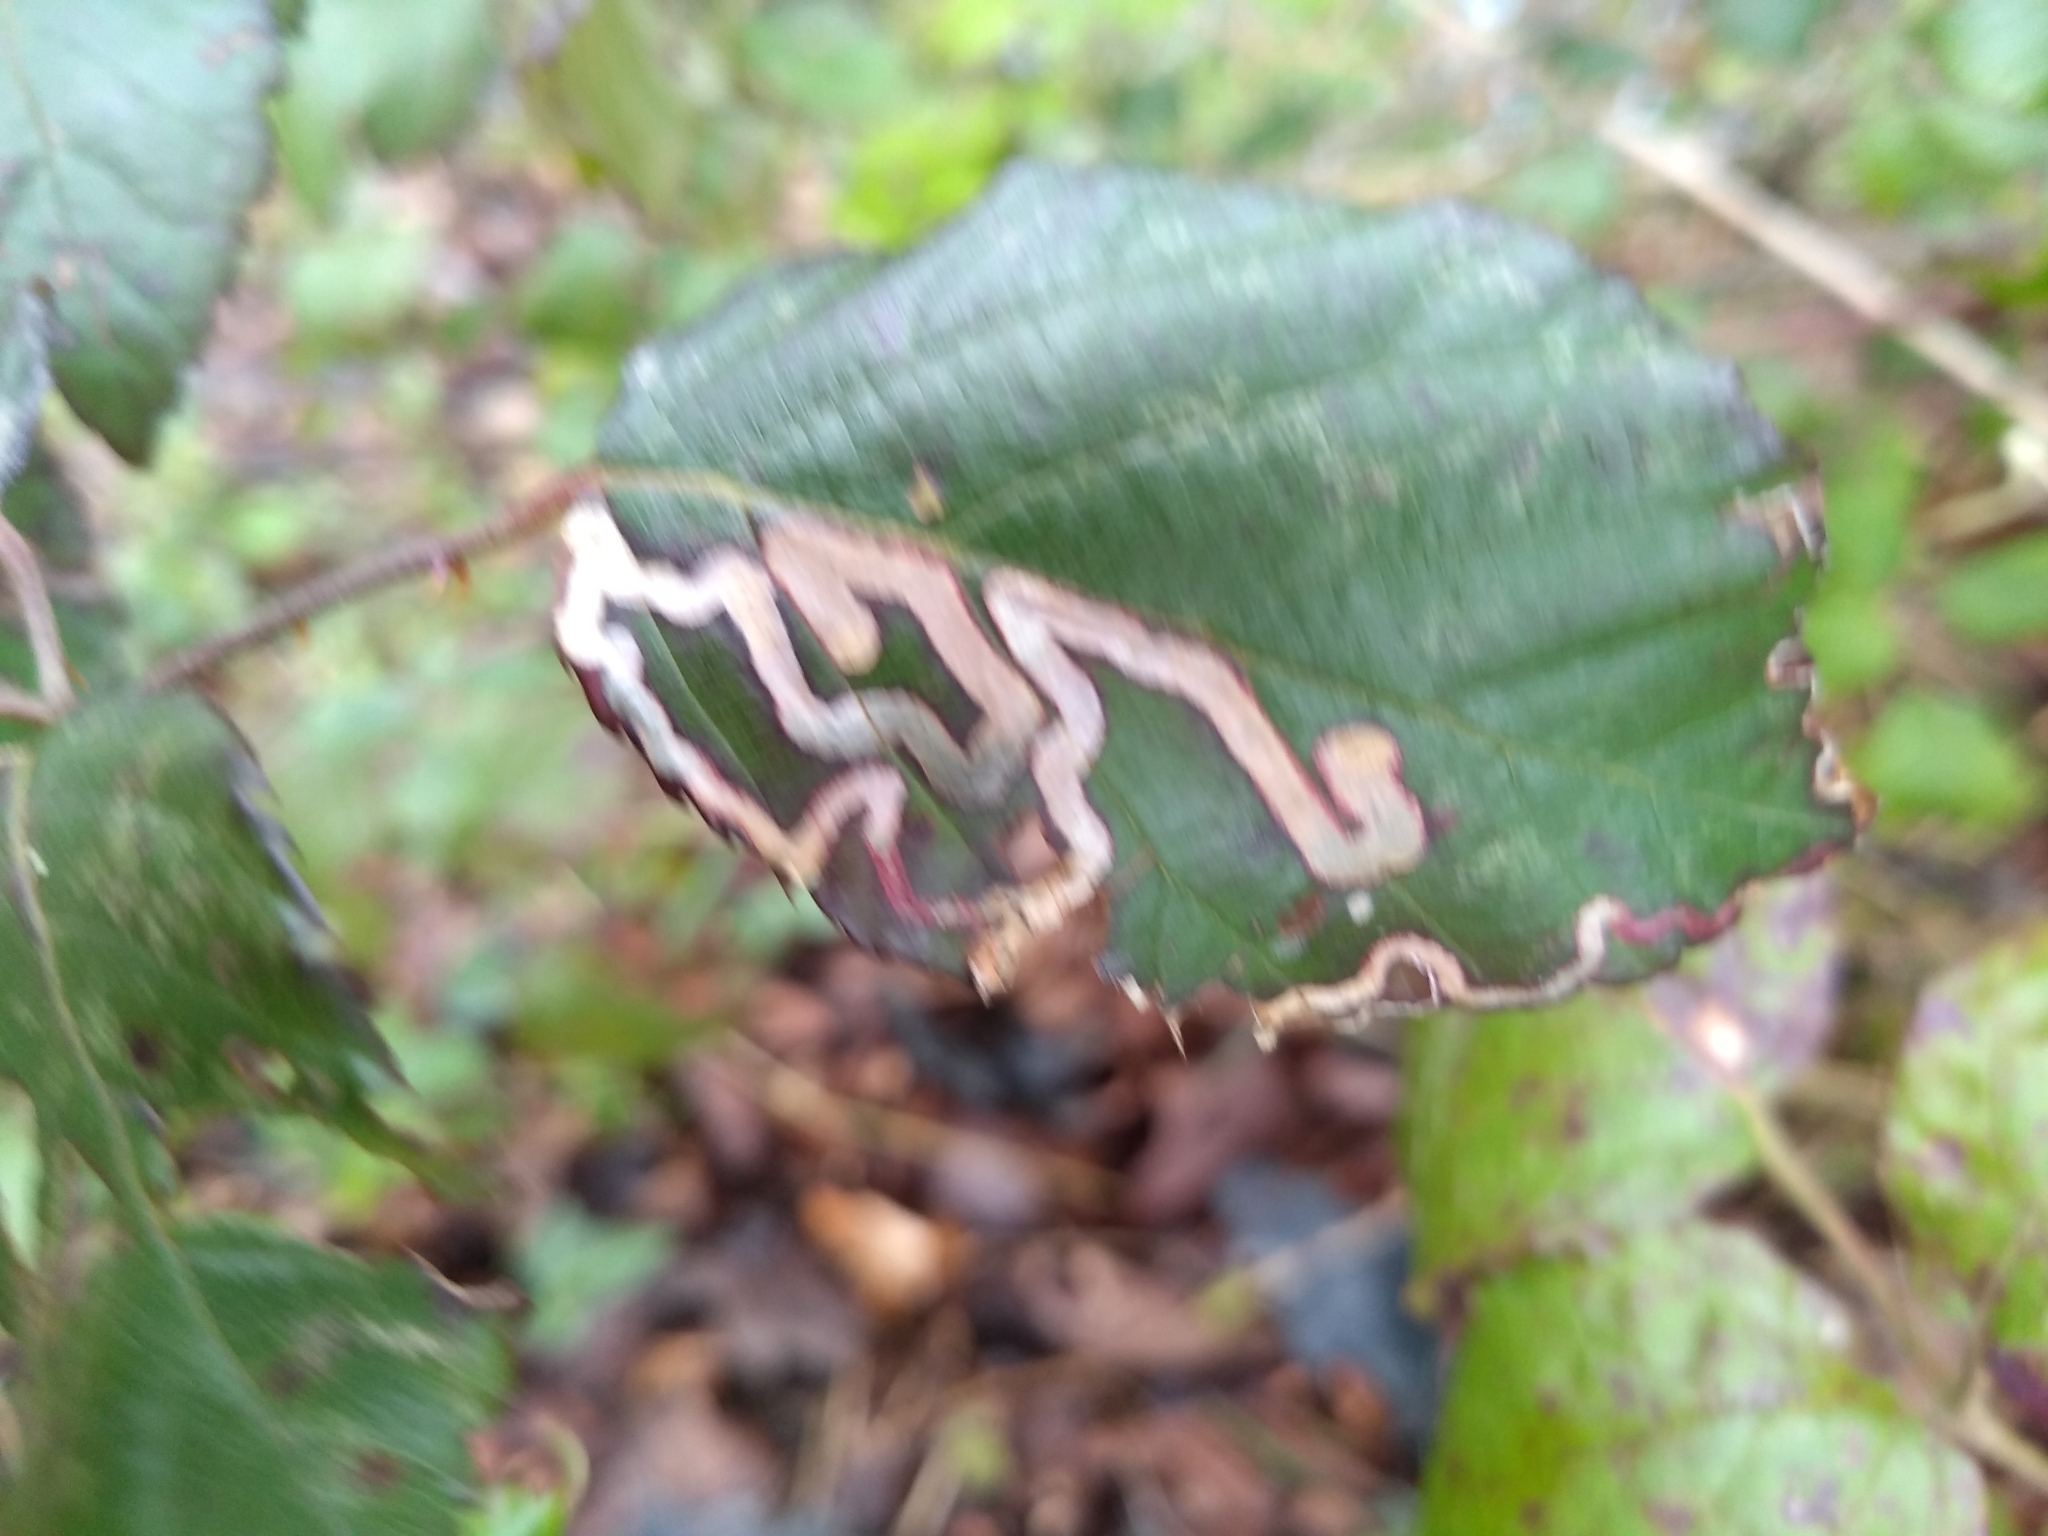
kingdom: Animalia
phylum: Arthropoda
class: Insecta
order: Lepidoptera
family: Nepticulidae
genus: Stigmella
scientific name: Stigmella aurella
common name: Golden pigmy
